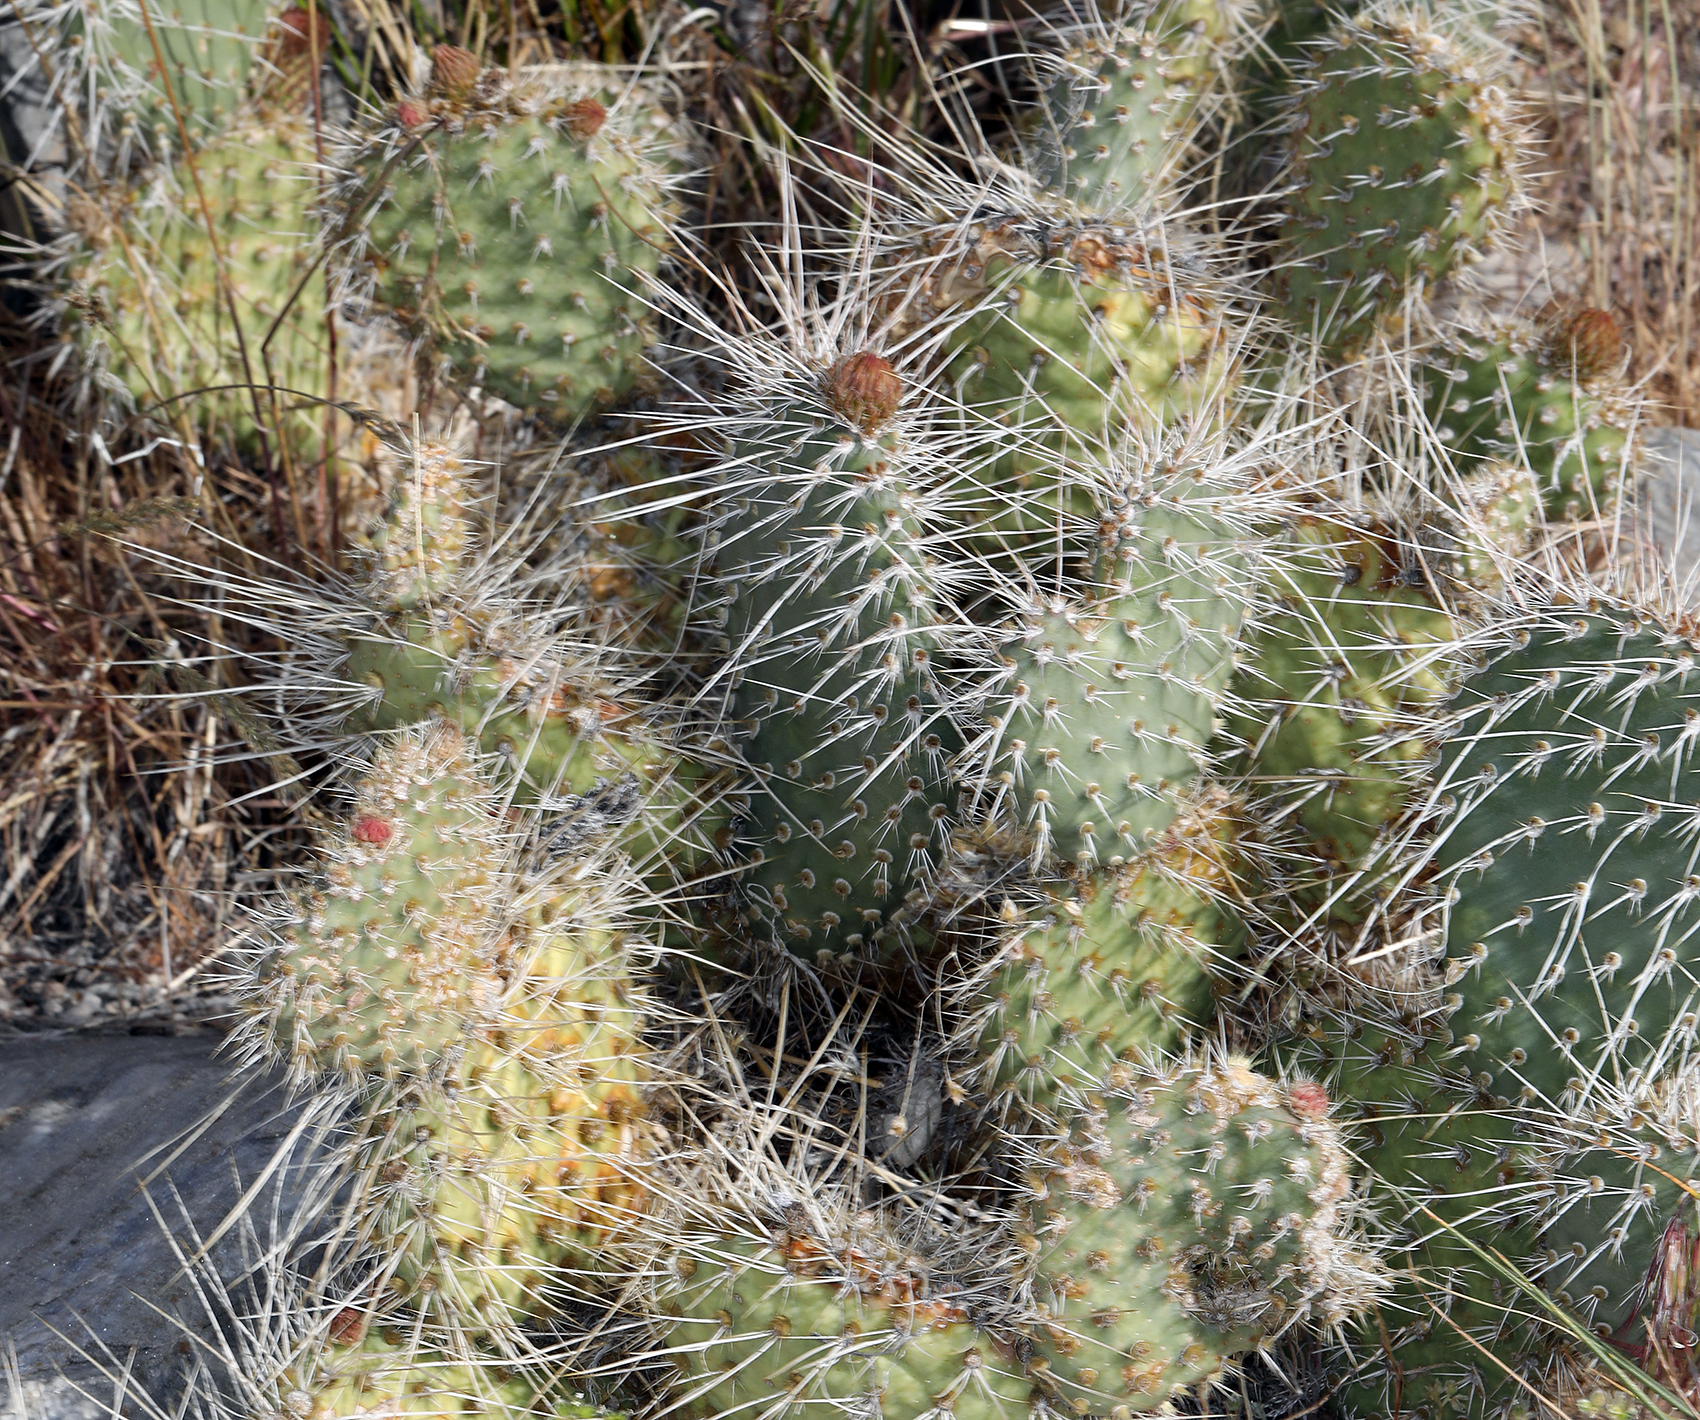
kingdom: Plantae
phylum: Tracheophyta
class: Magnoliopsida
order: Caryophyllales
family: Cactaceae
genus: Opuntia
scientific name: Opuntia polyacantha
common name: Plains prickly-pear
